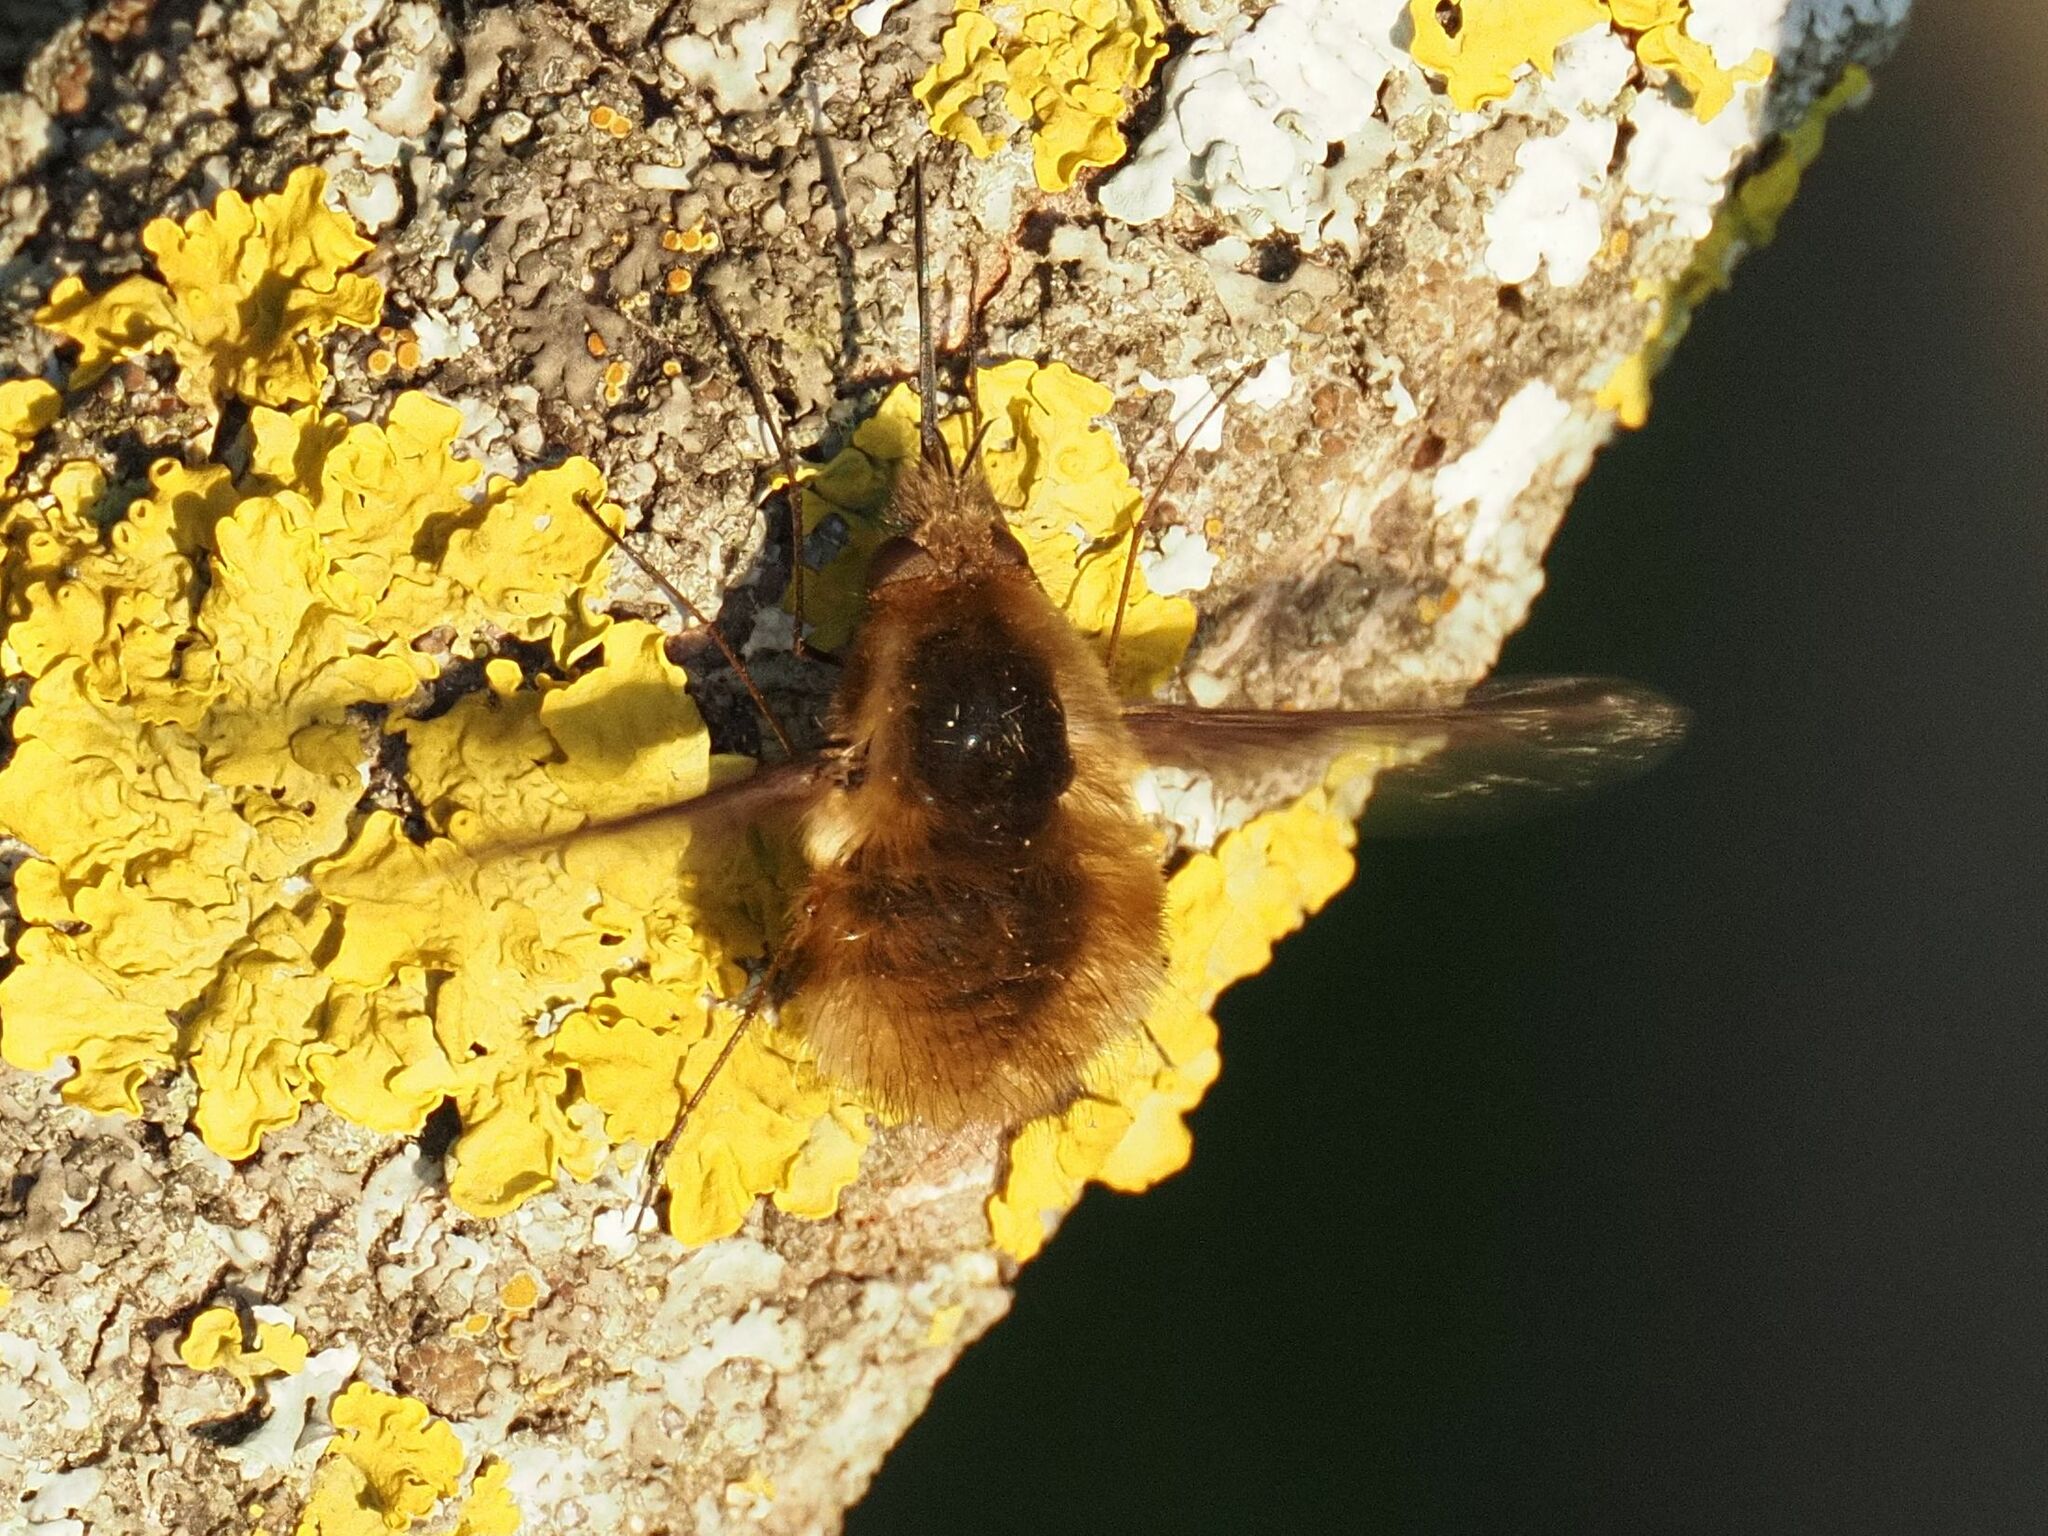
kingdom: Animalia
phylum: Arthropoda
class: Insecta
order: Diptera
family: Bombyliidae
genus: Bombylius
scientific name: Bombylius major
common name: Bee fly
